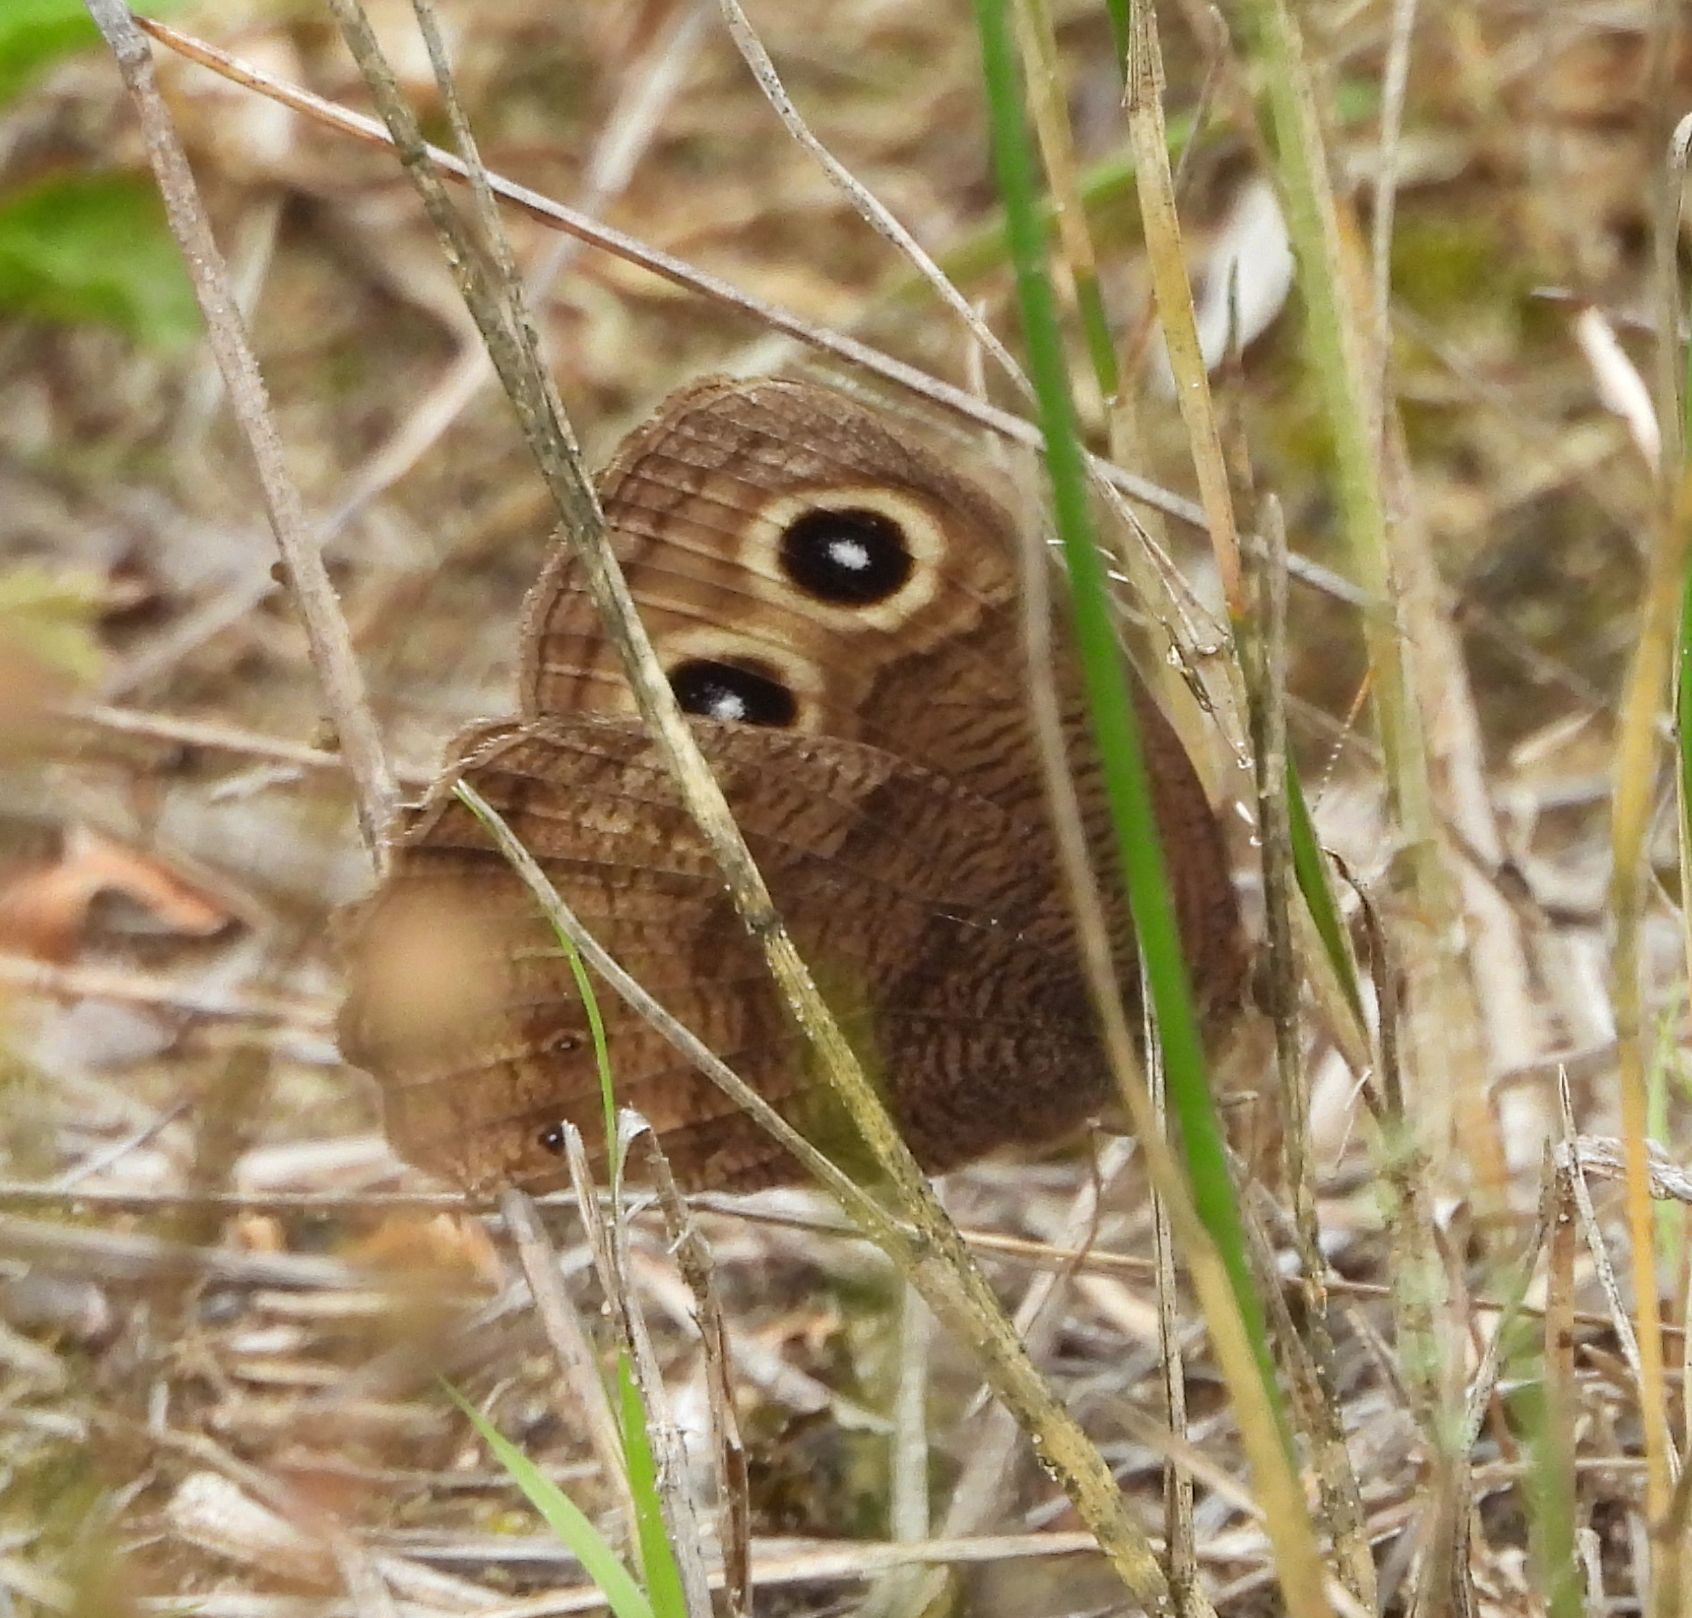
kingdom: Animalia
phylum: Arthropoda
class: Insecta
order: Lepidoptera
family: Nymphalidae
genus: Cercyonis
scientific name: Cercyonis pegala
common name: Common wood-nymph
